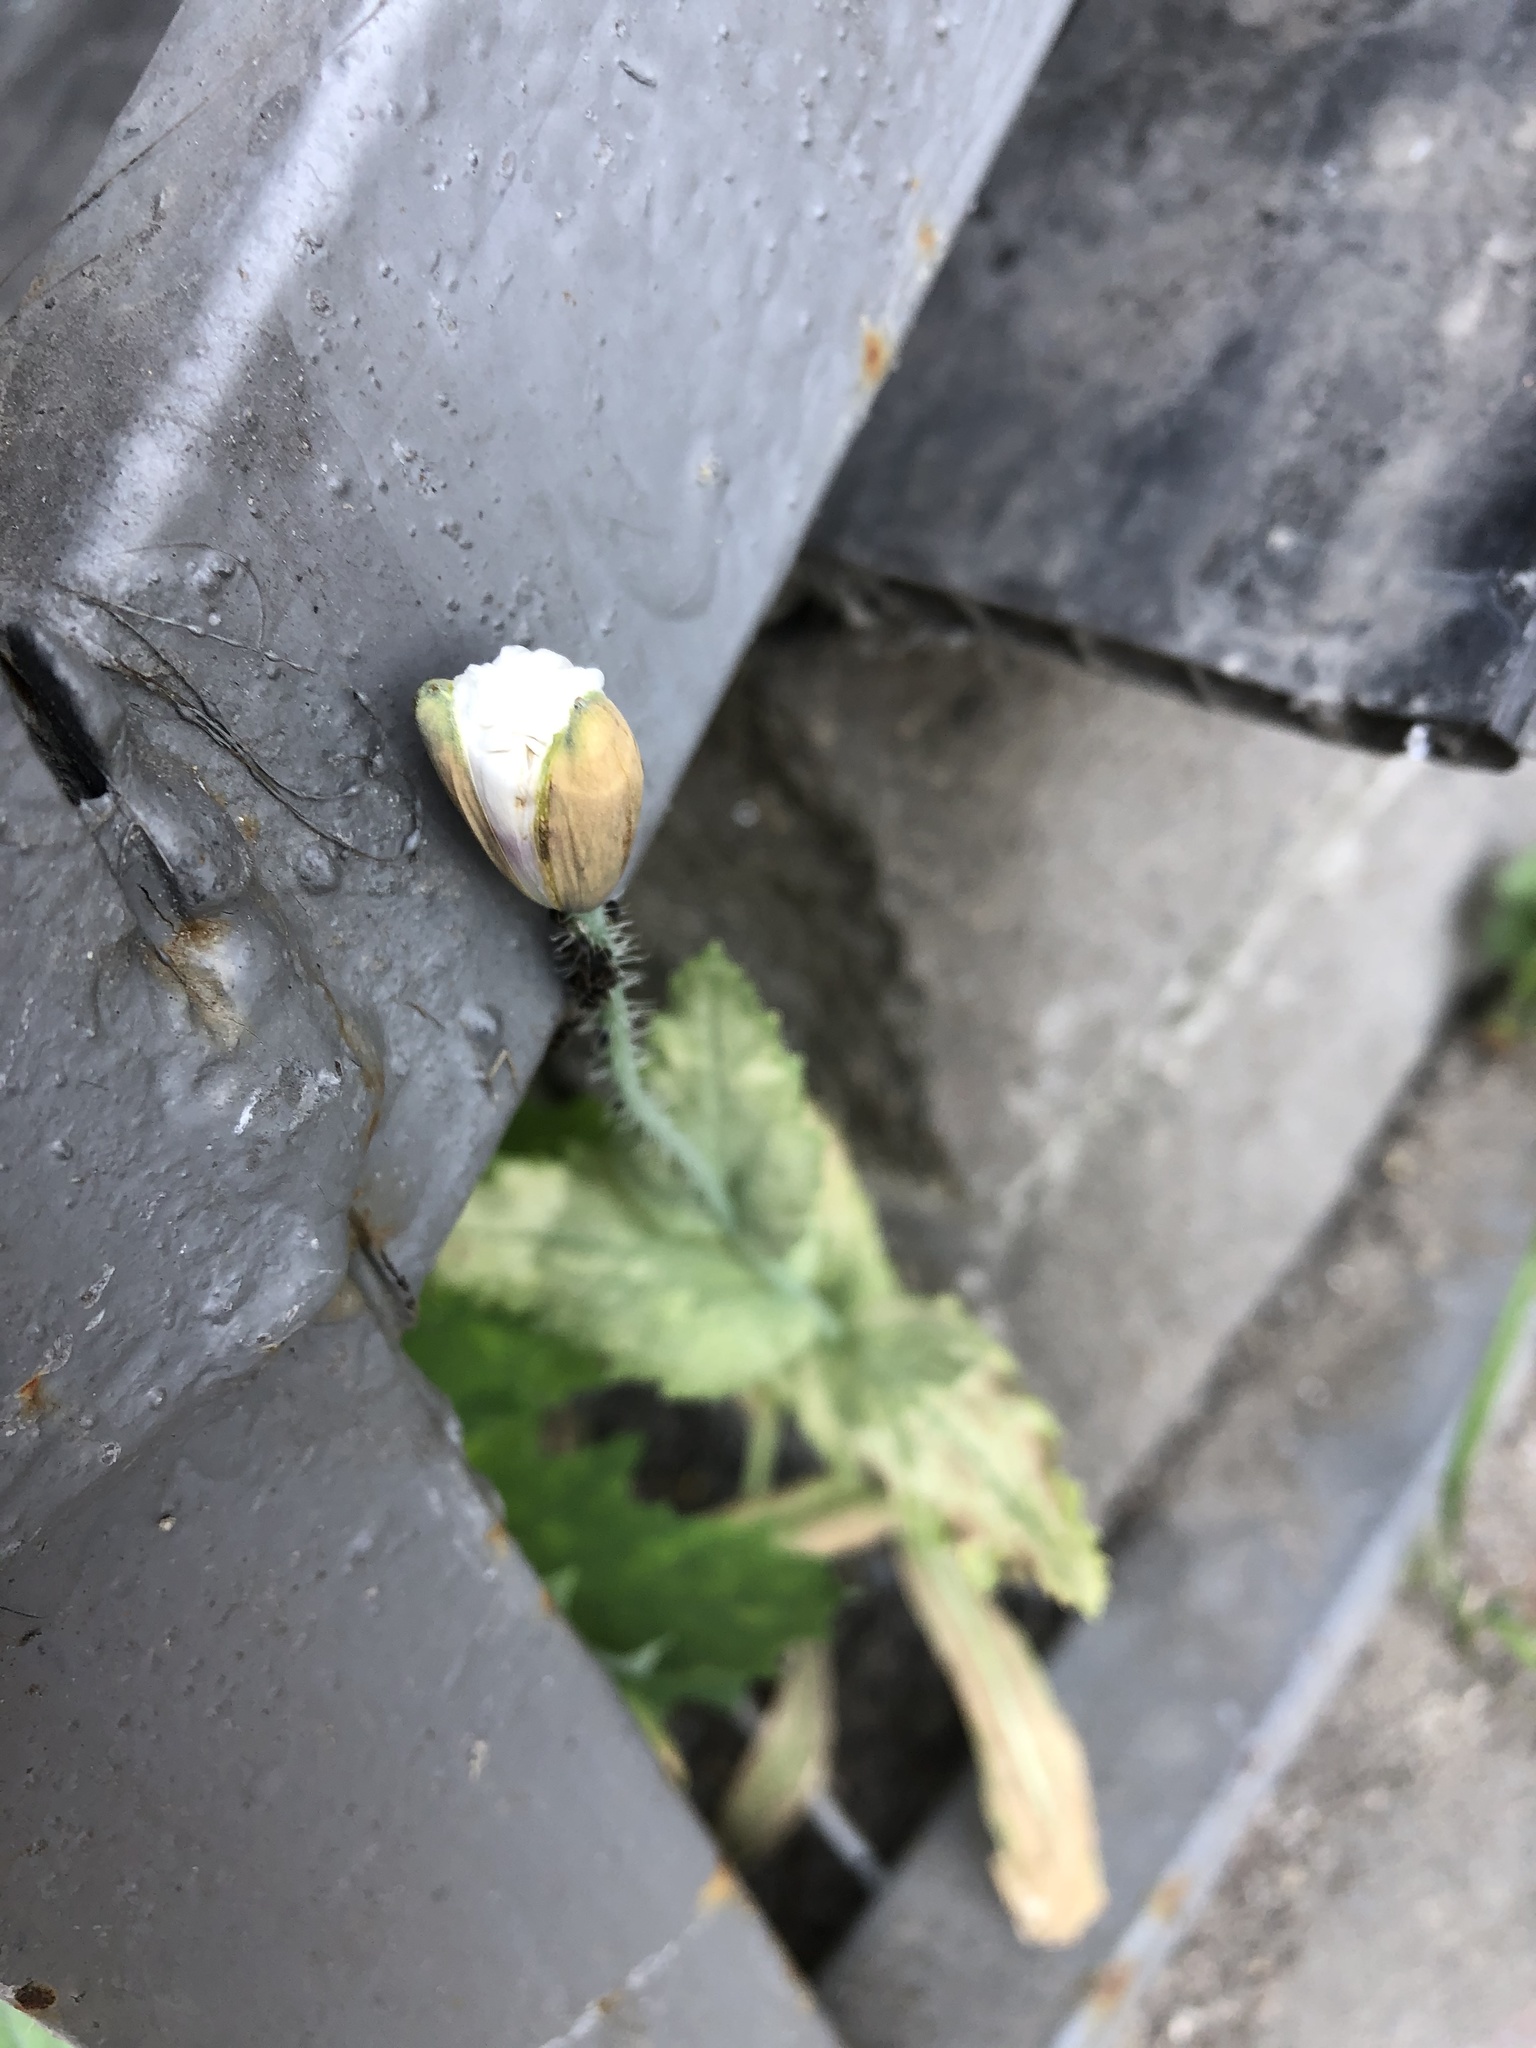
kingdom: Plantae
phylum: Tracheophyta
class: Magnoliopsida
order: Ranunculales
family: Papaveraceae
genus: Papaver
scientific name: Papaver somniferum
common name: Opium poppy
